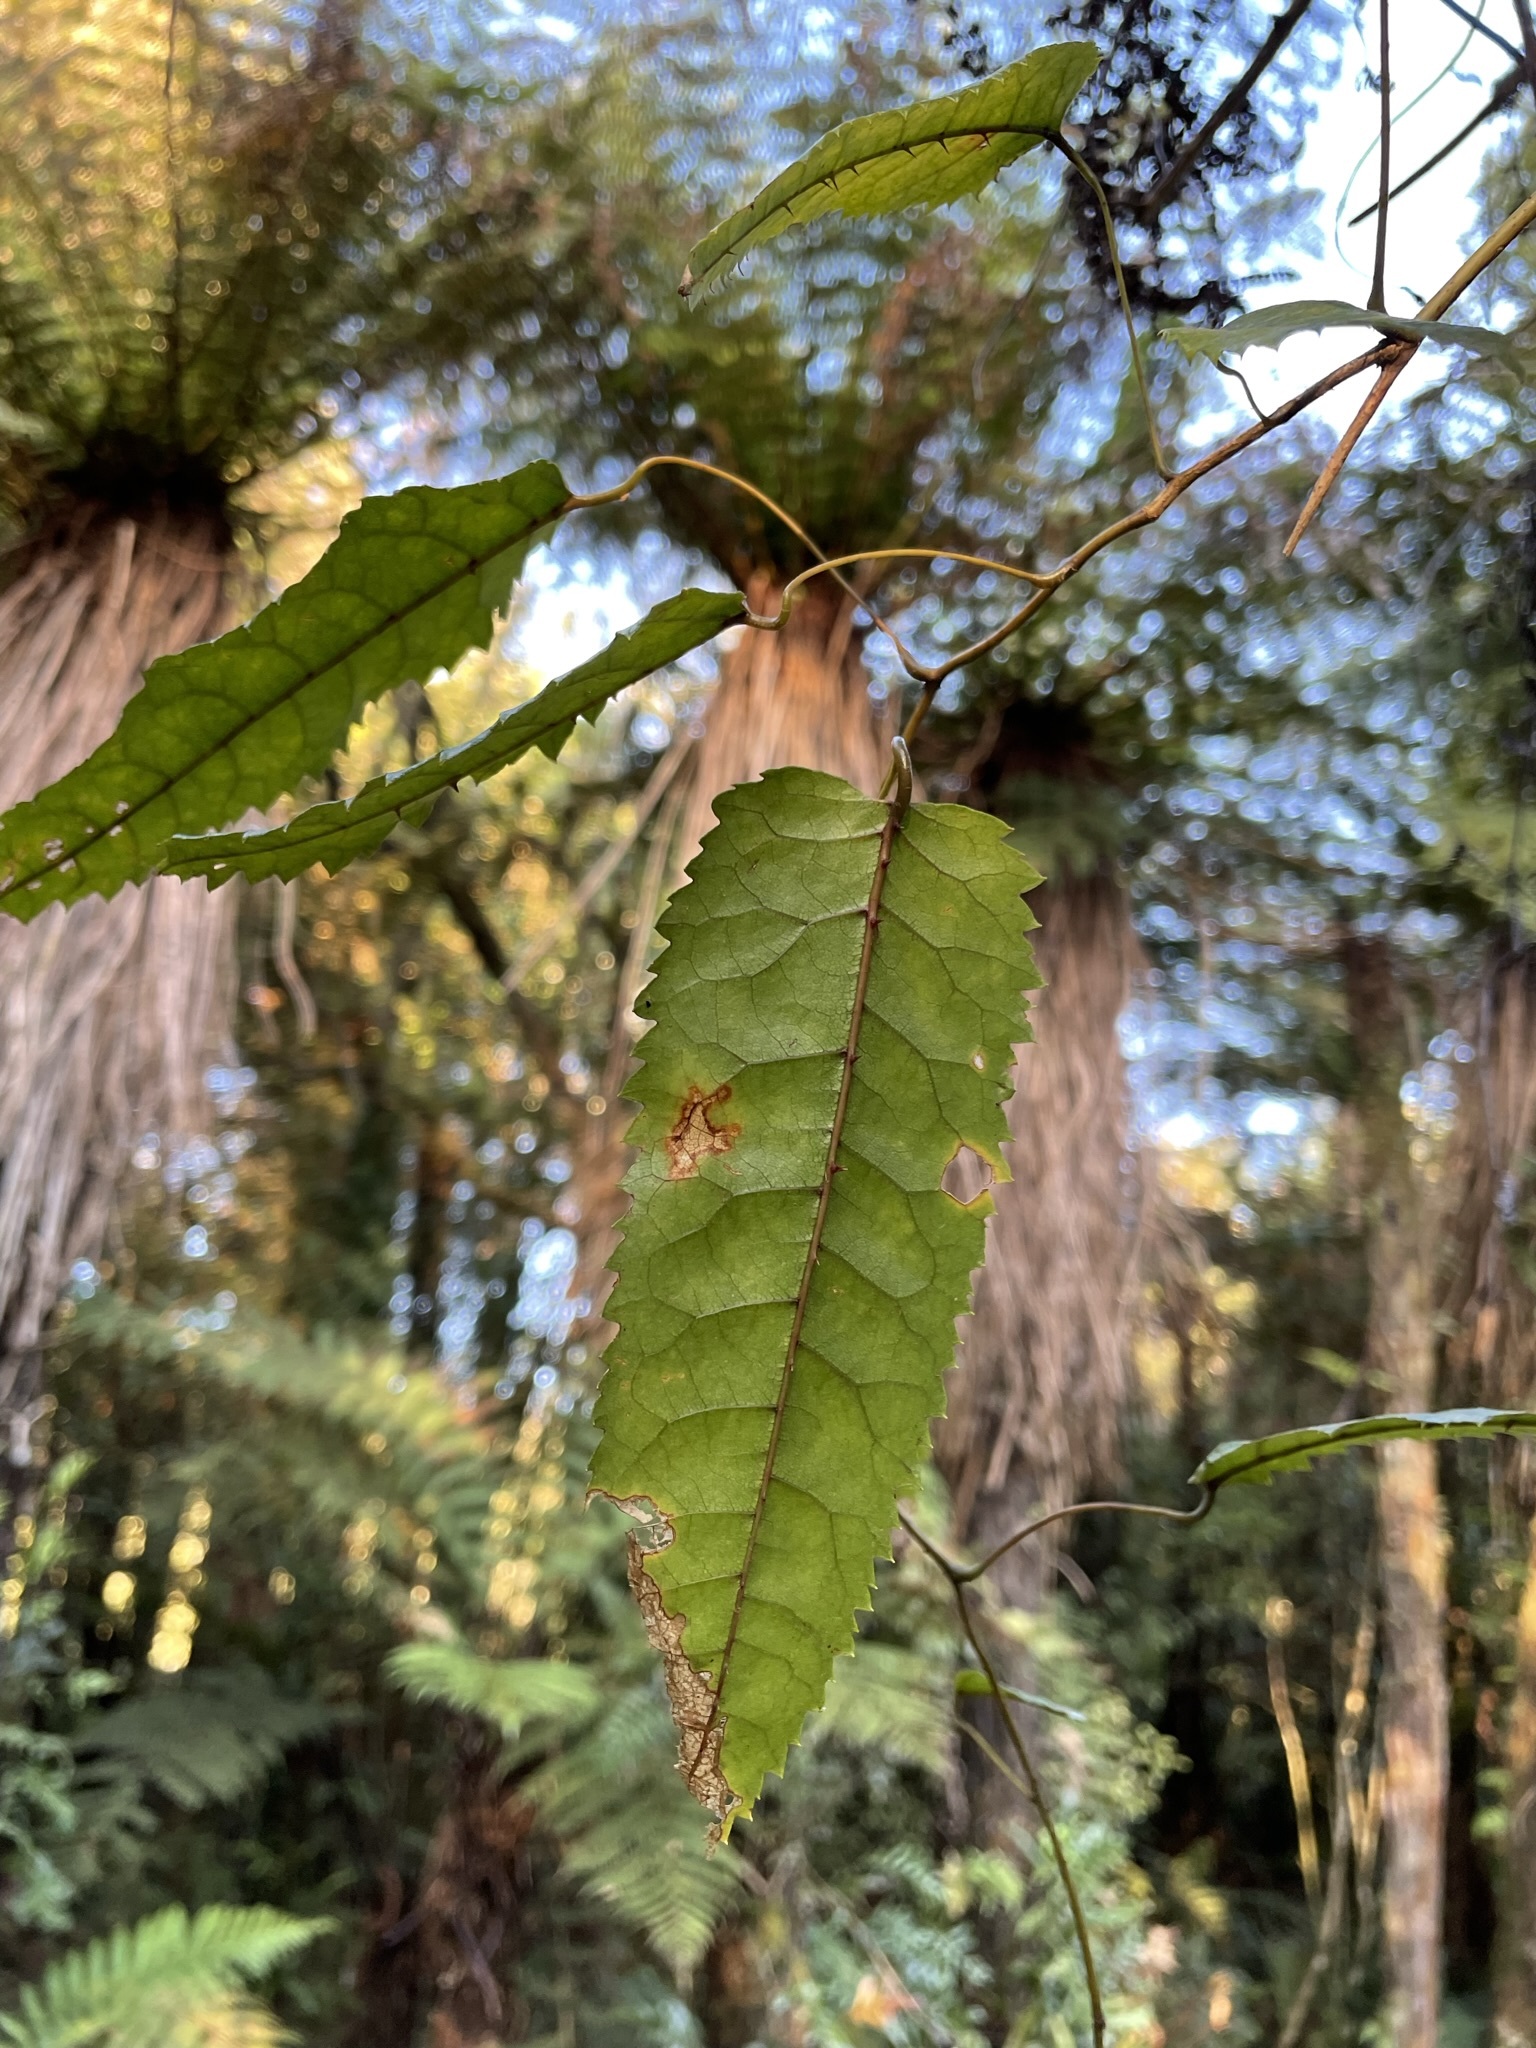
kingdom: Plantae
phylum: Tracheophyta
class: Magnoliopsida
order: Rosales
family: Rosaceae
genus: Rubus
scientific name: Rubus cissoides
